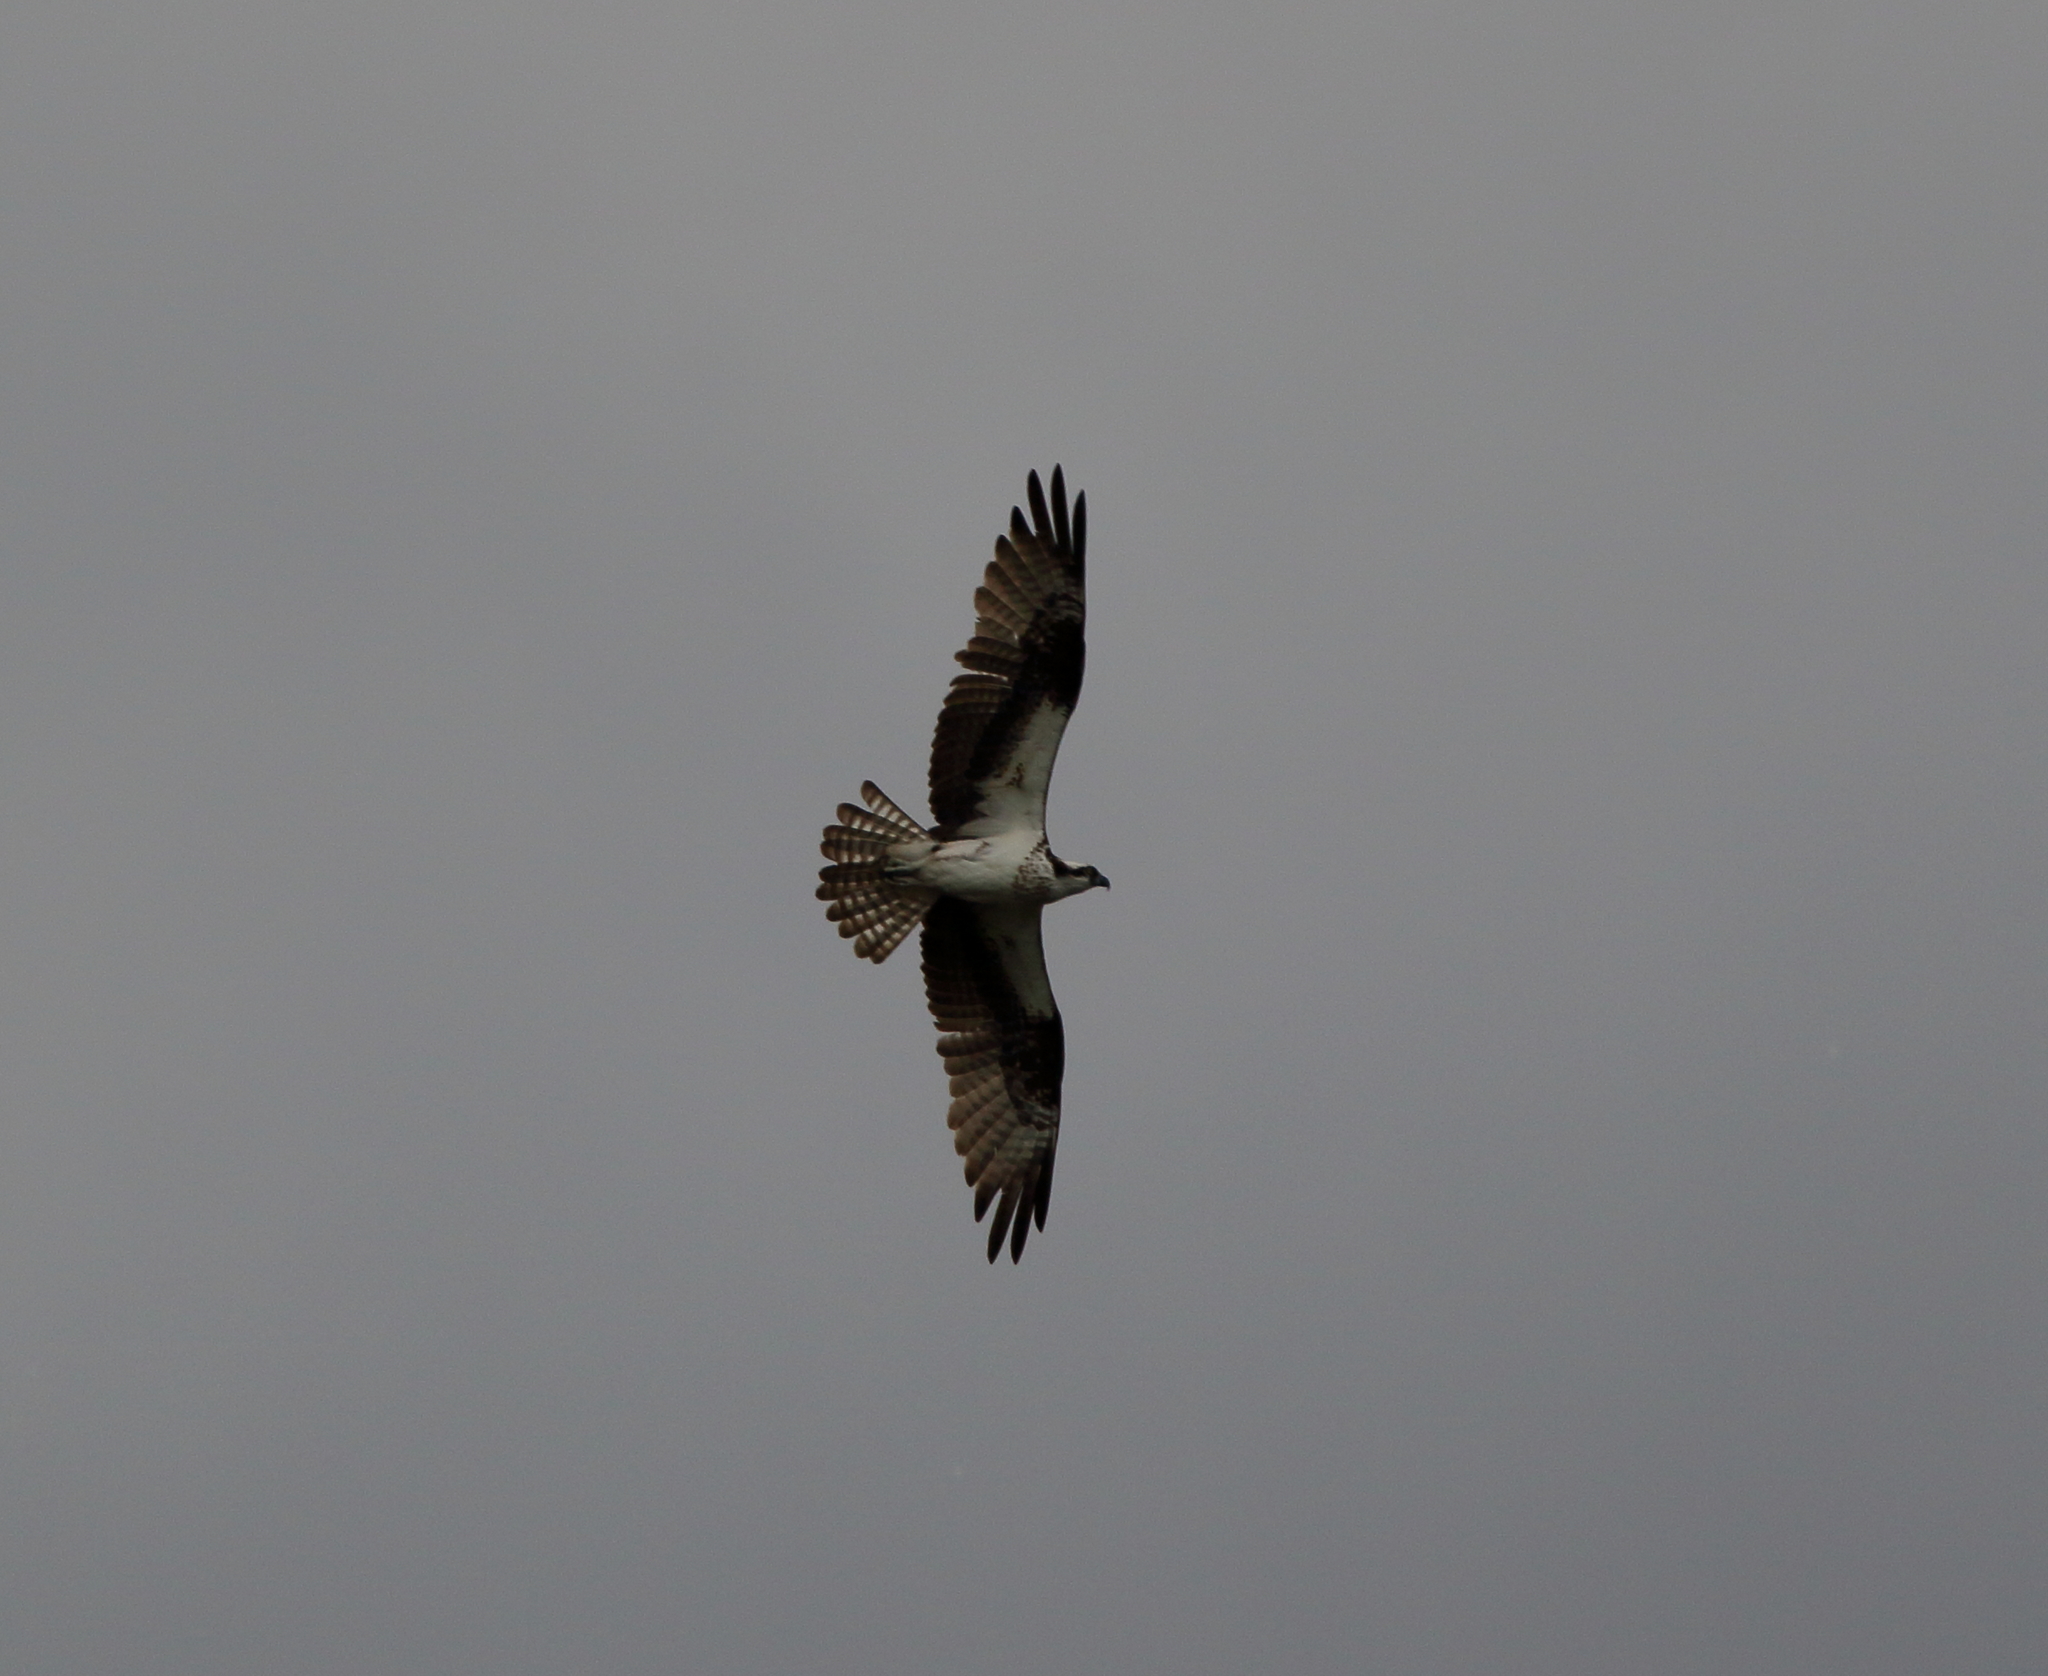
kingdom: Animalia
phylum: Chordata
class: Aves
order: Accipitriformes
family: Pandionidae
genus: Pandion
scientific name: Pandion haliaetus
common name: Osprey
